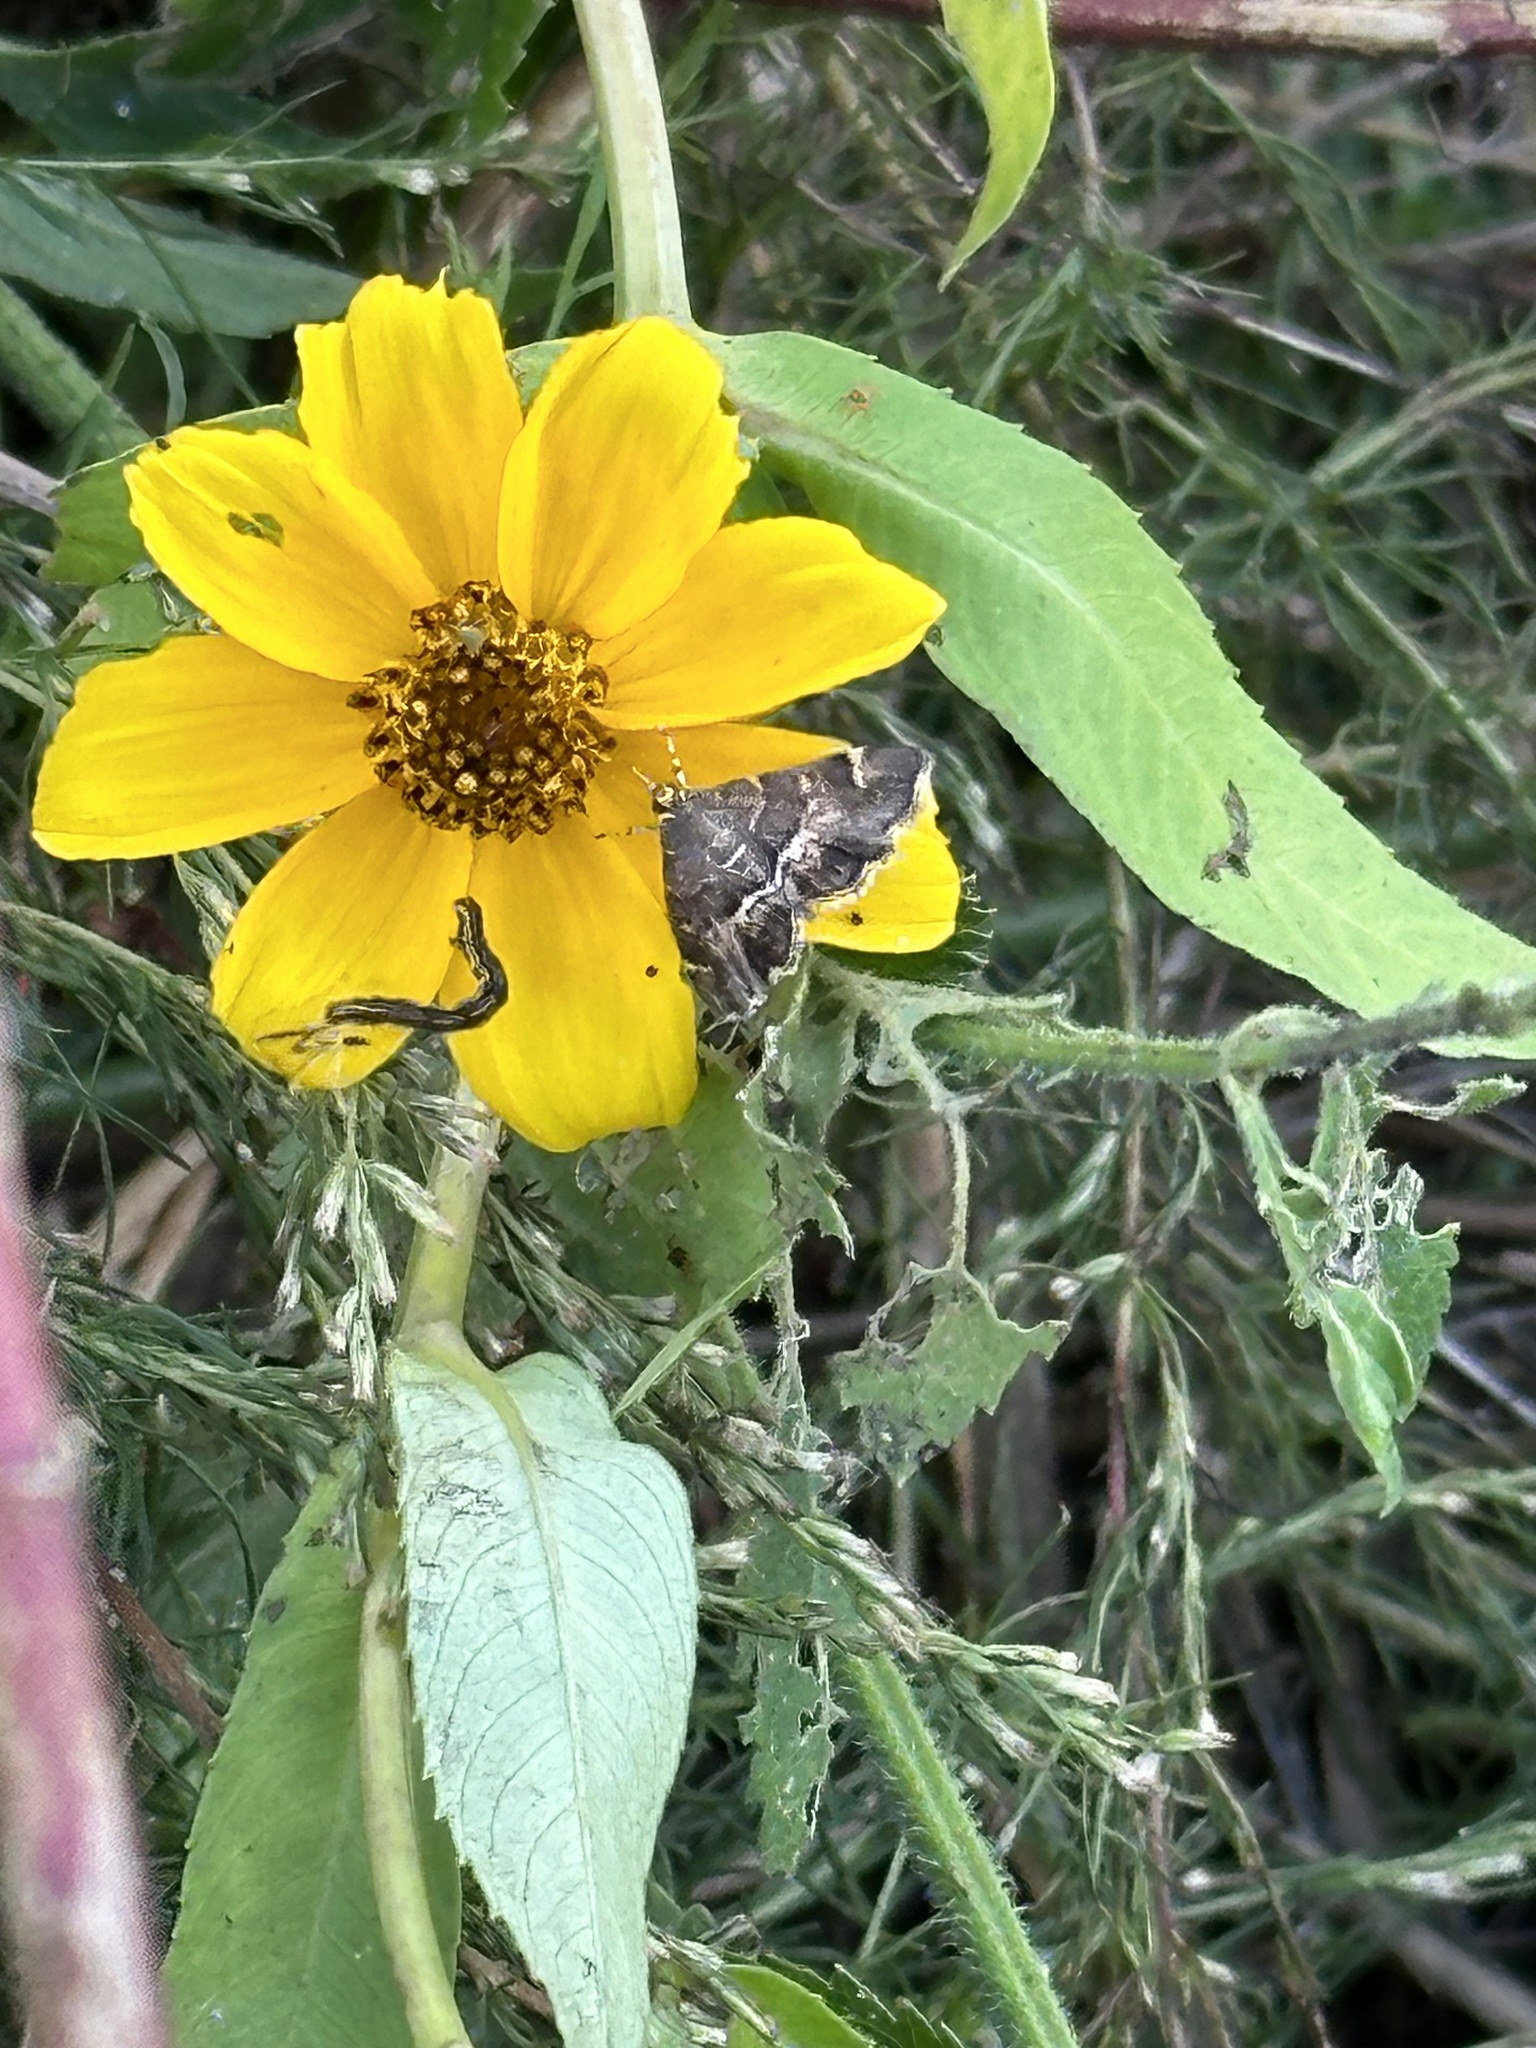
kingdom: Animalia
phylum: Arthropoda
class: Insecta
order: Lepidoptera
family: Crambidae
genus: Hymenia
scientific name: Hymenia perspectalis
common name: Spotted beet webworm
